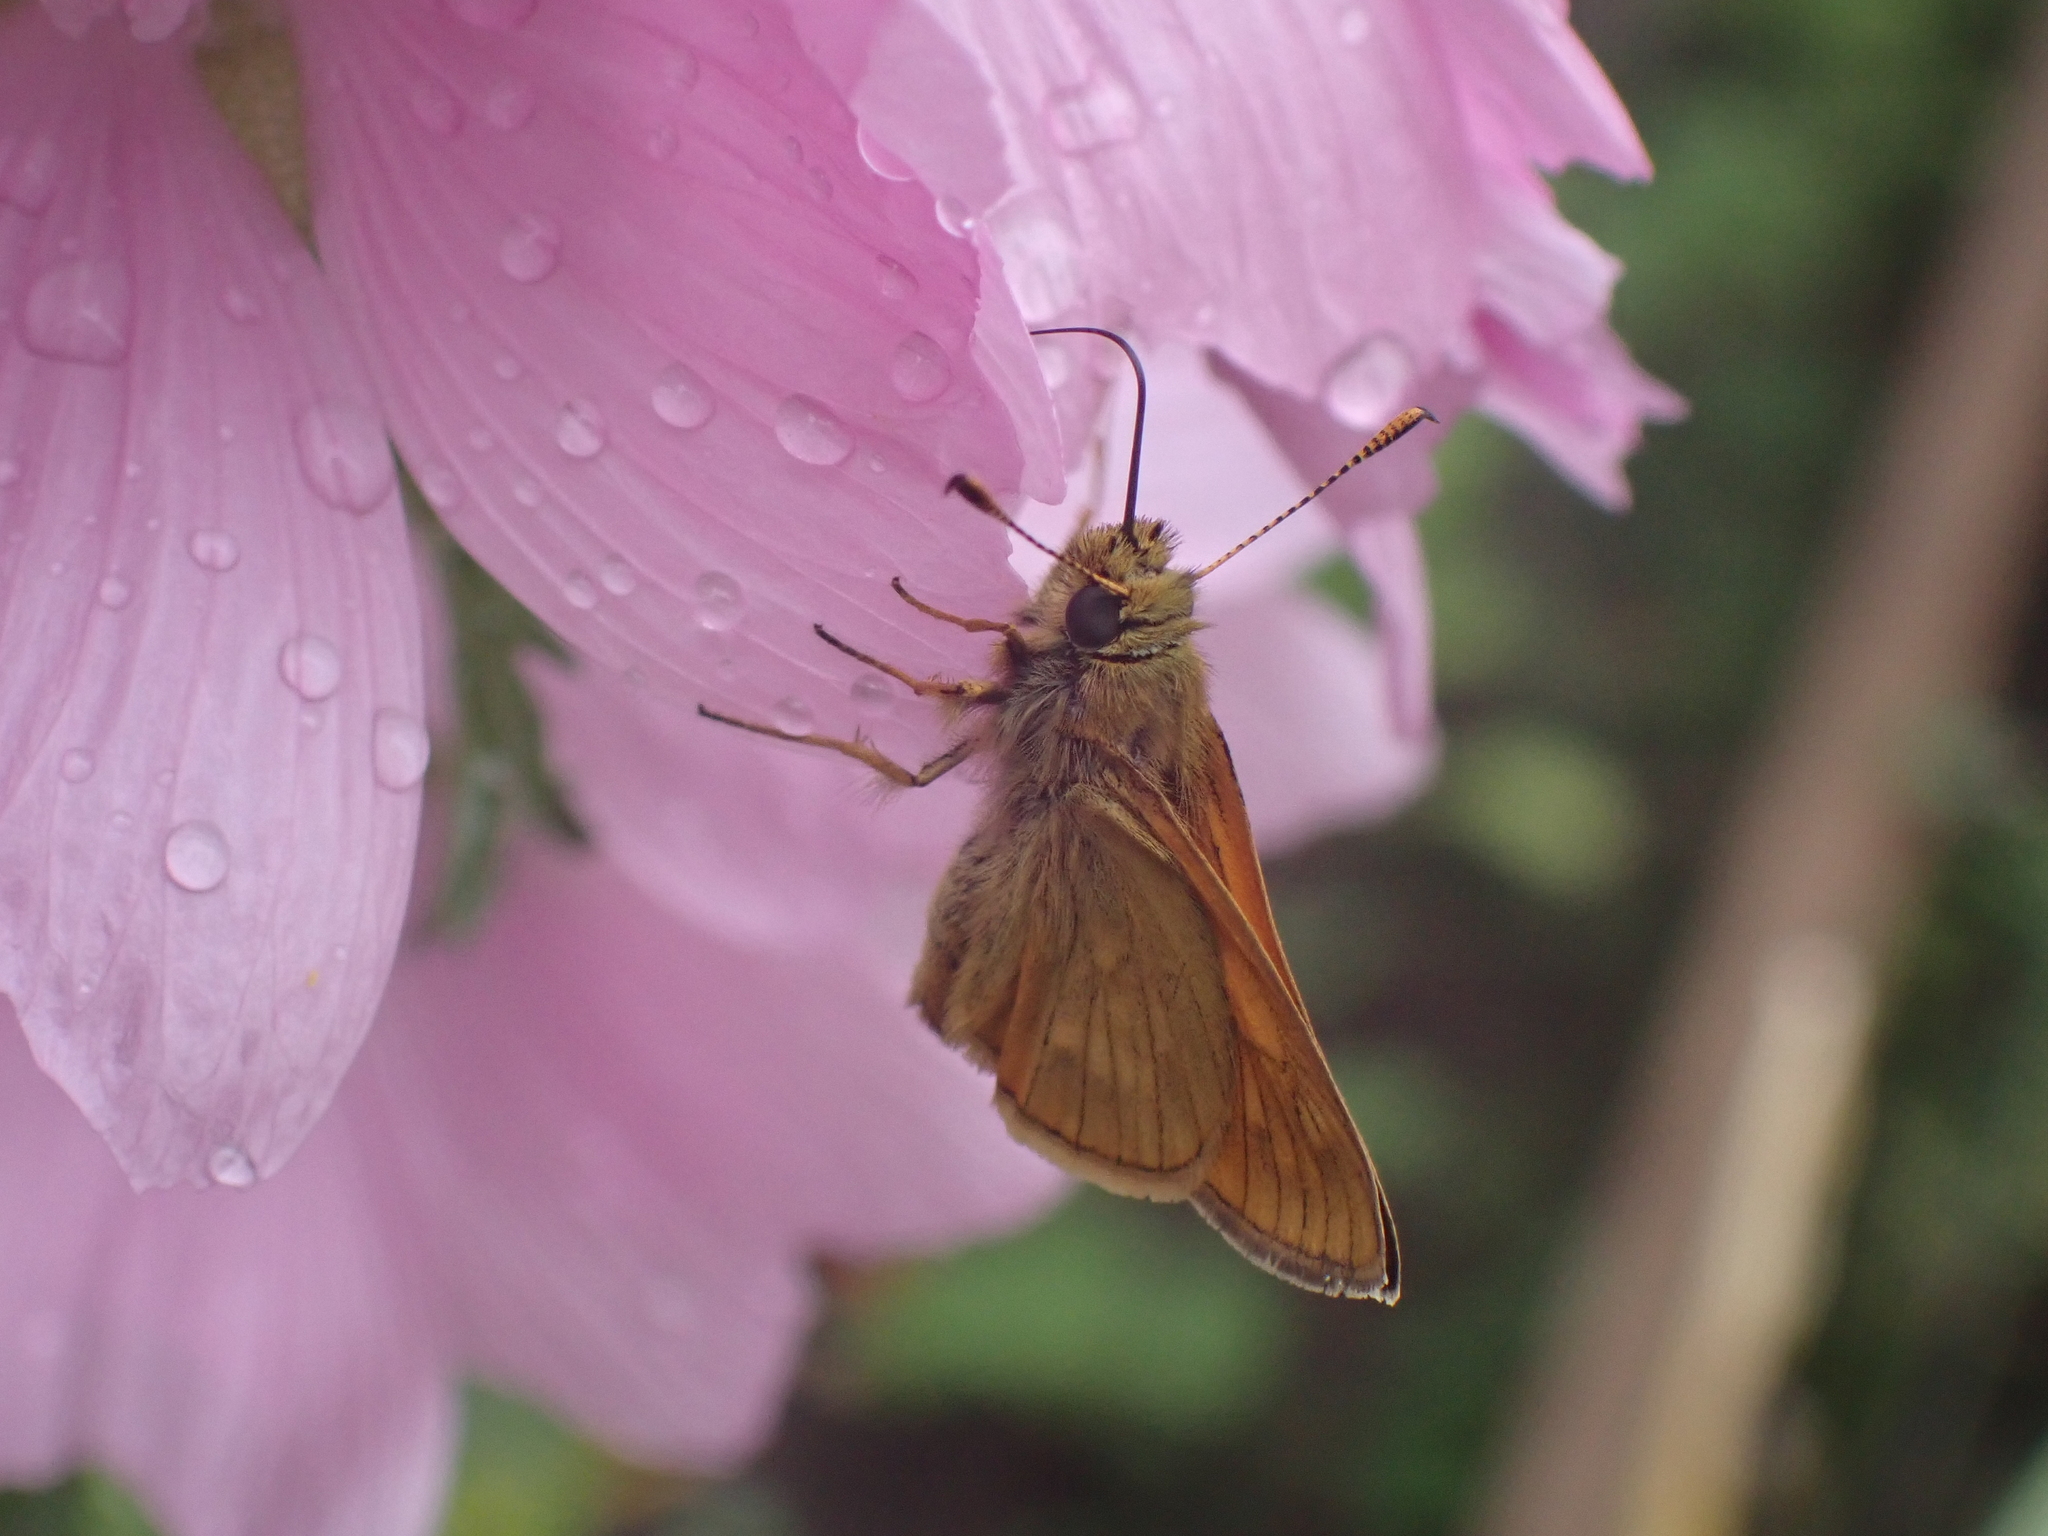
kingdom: Animalia
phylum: Arthropoda
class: Insecta
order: Lepidoptera
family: Hesperiidae
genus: Ochlodes
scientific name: Ochlodes venata
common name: Large skipper
